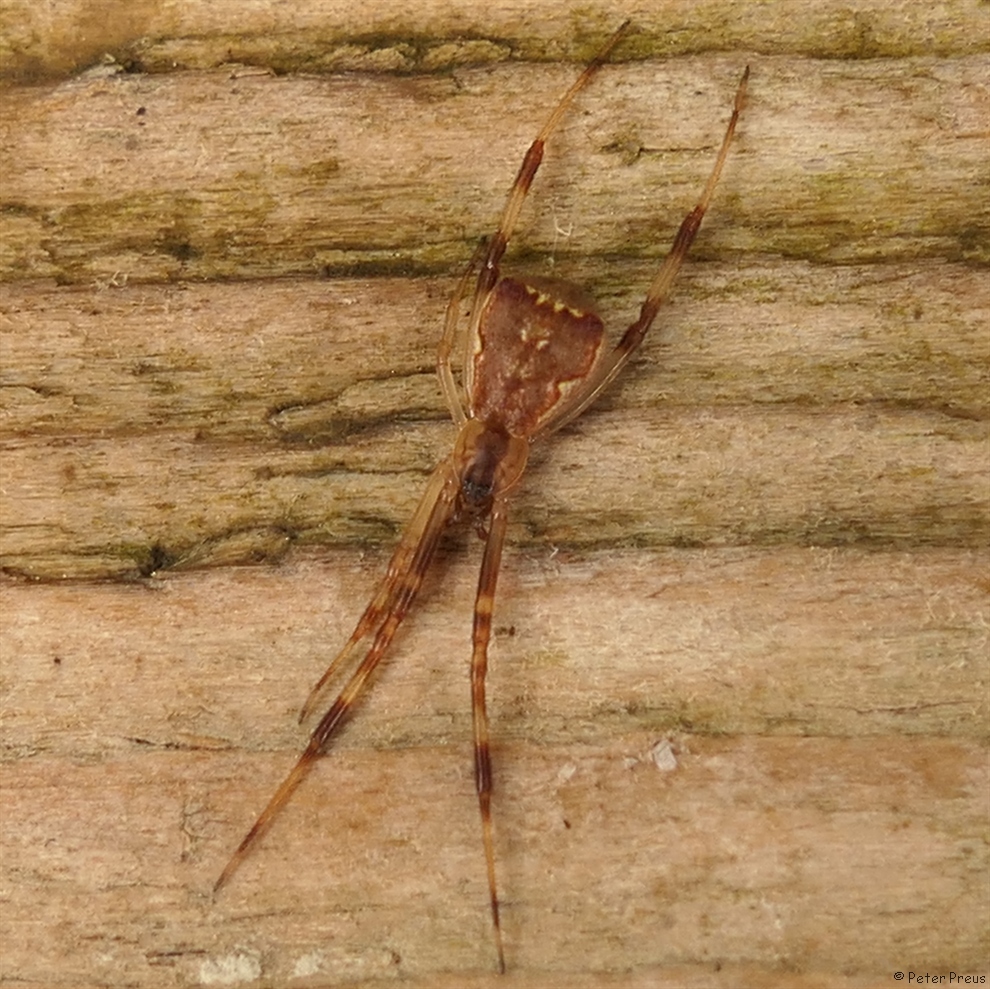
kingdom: Animalia
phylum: Arthropoda
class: Arachnida
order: Araneae
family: Theridiidae
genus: Episinus
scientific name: Episinus angulatus
